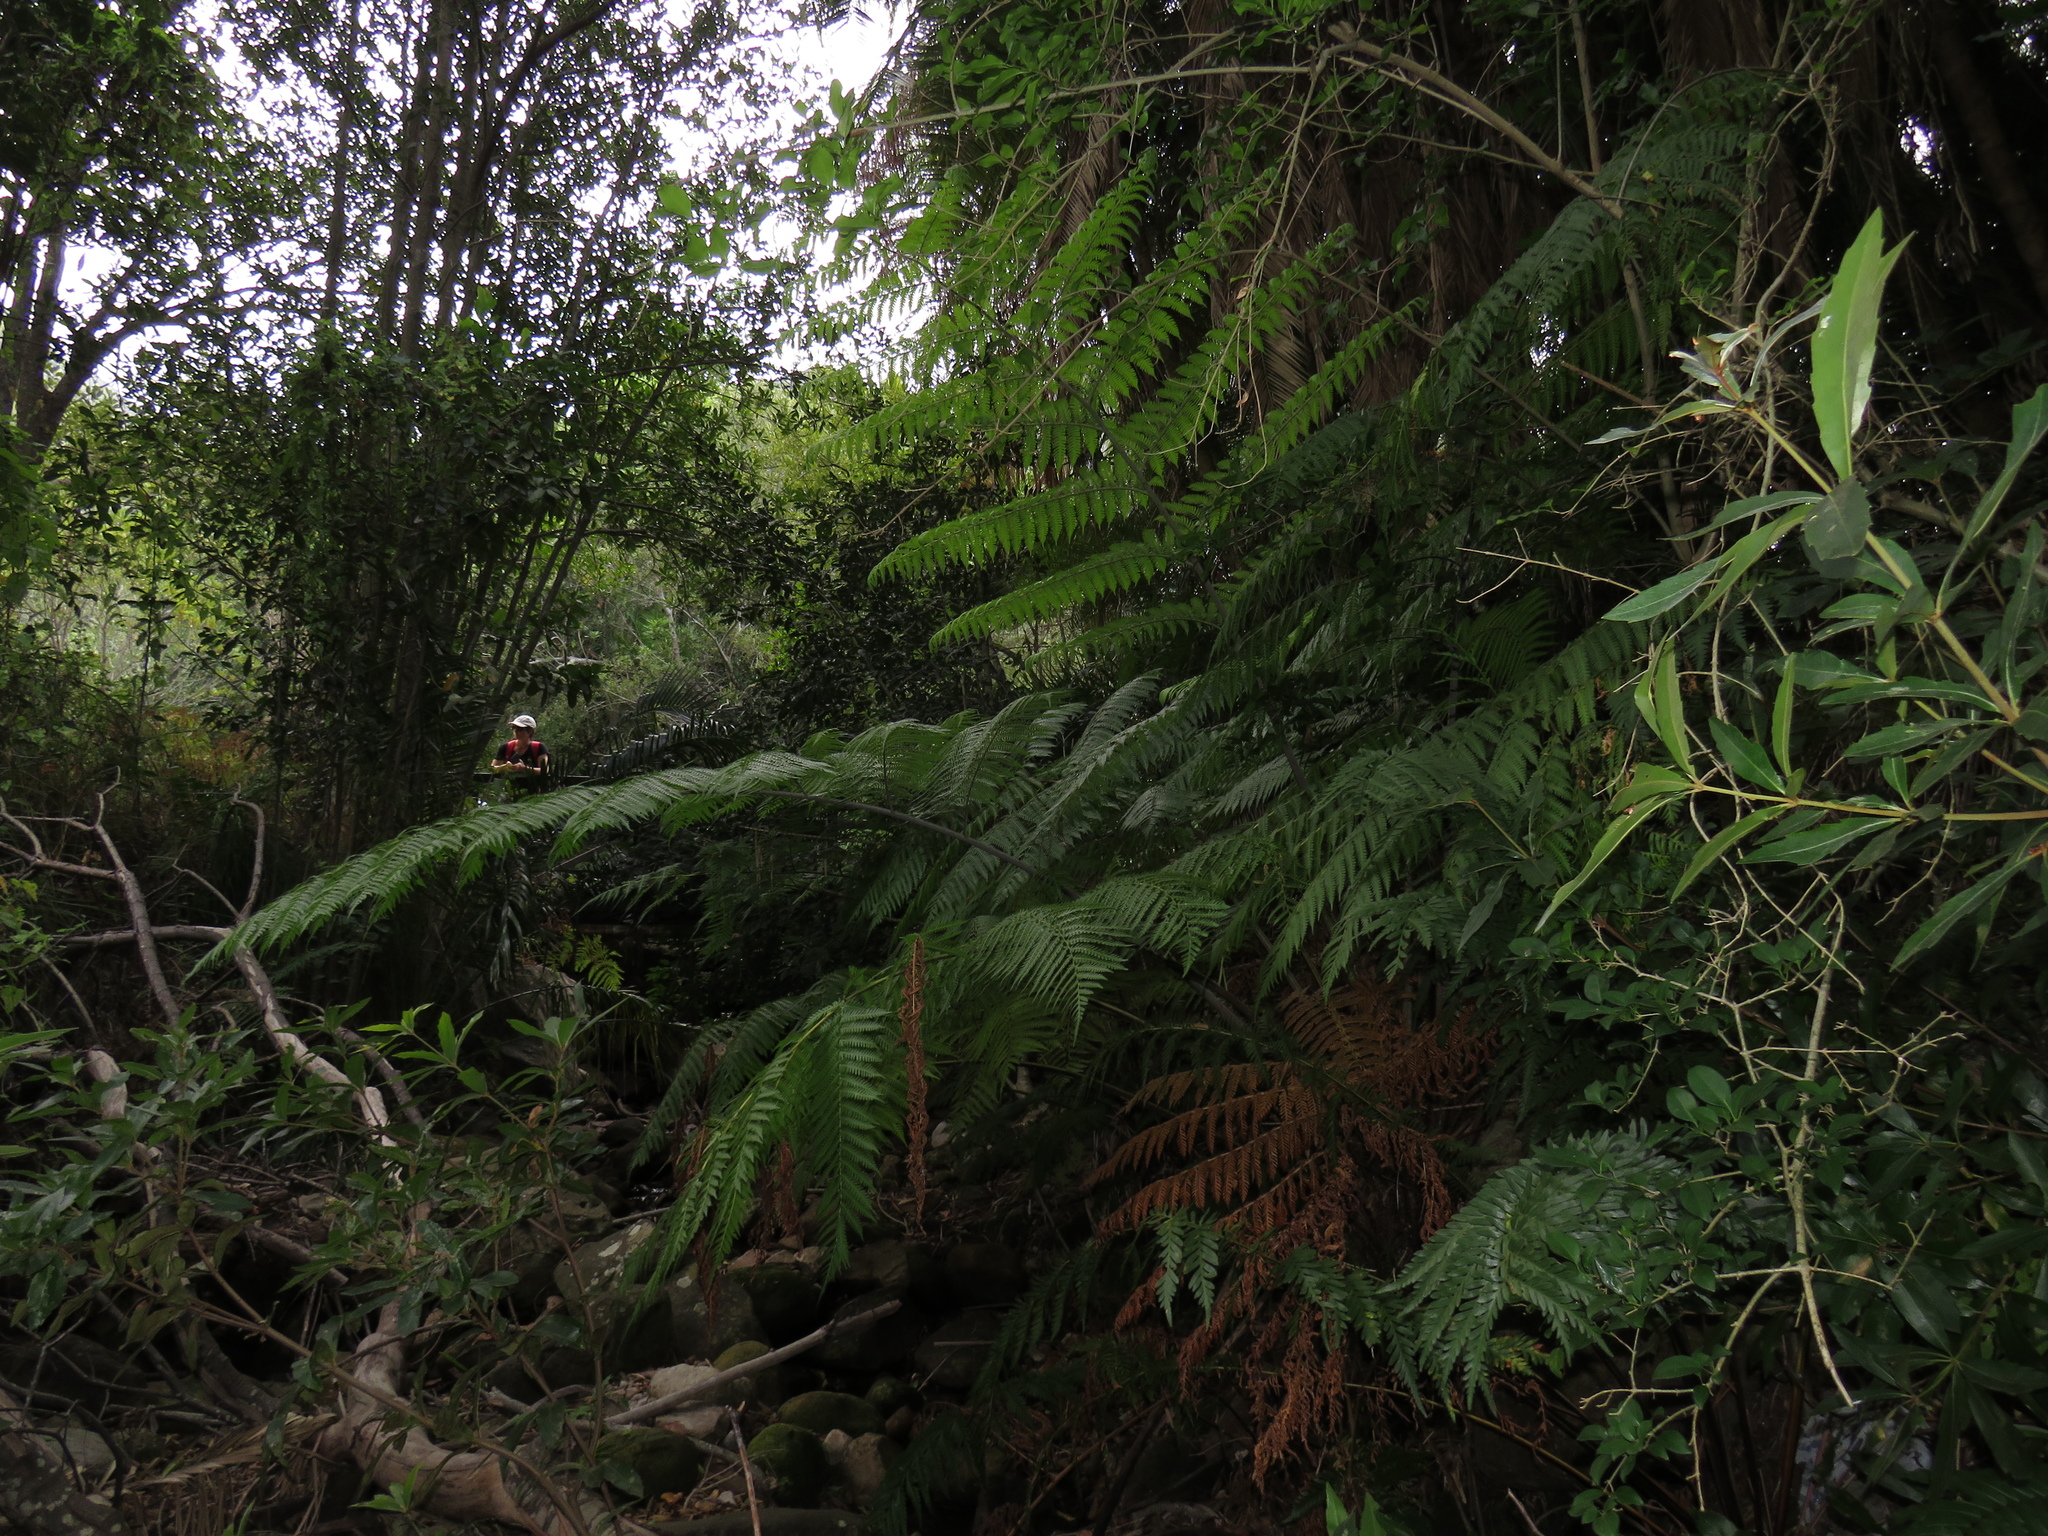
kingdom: Plantae
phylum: Tracheophyta
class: Polypodiopsida
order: Cyatheales
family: Cyatheaceae
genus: Sphaeropteris
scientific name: Sphaeropteris cooperi
